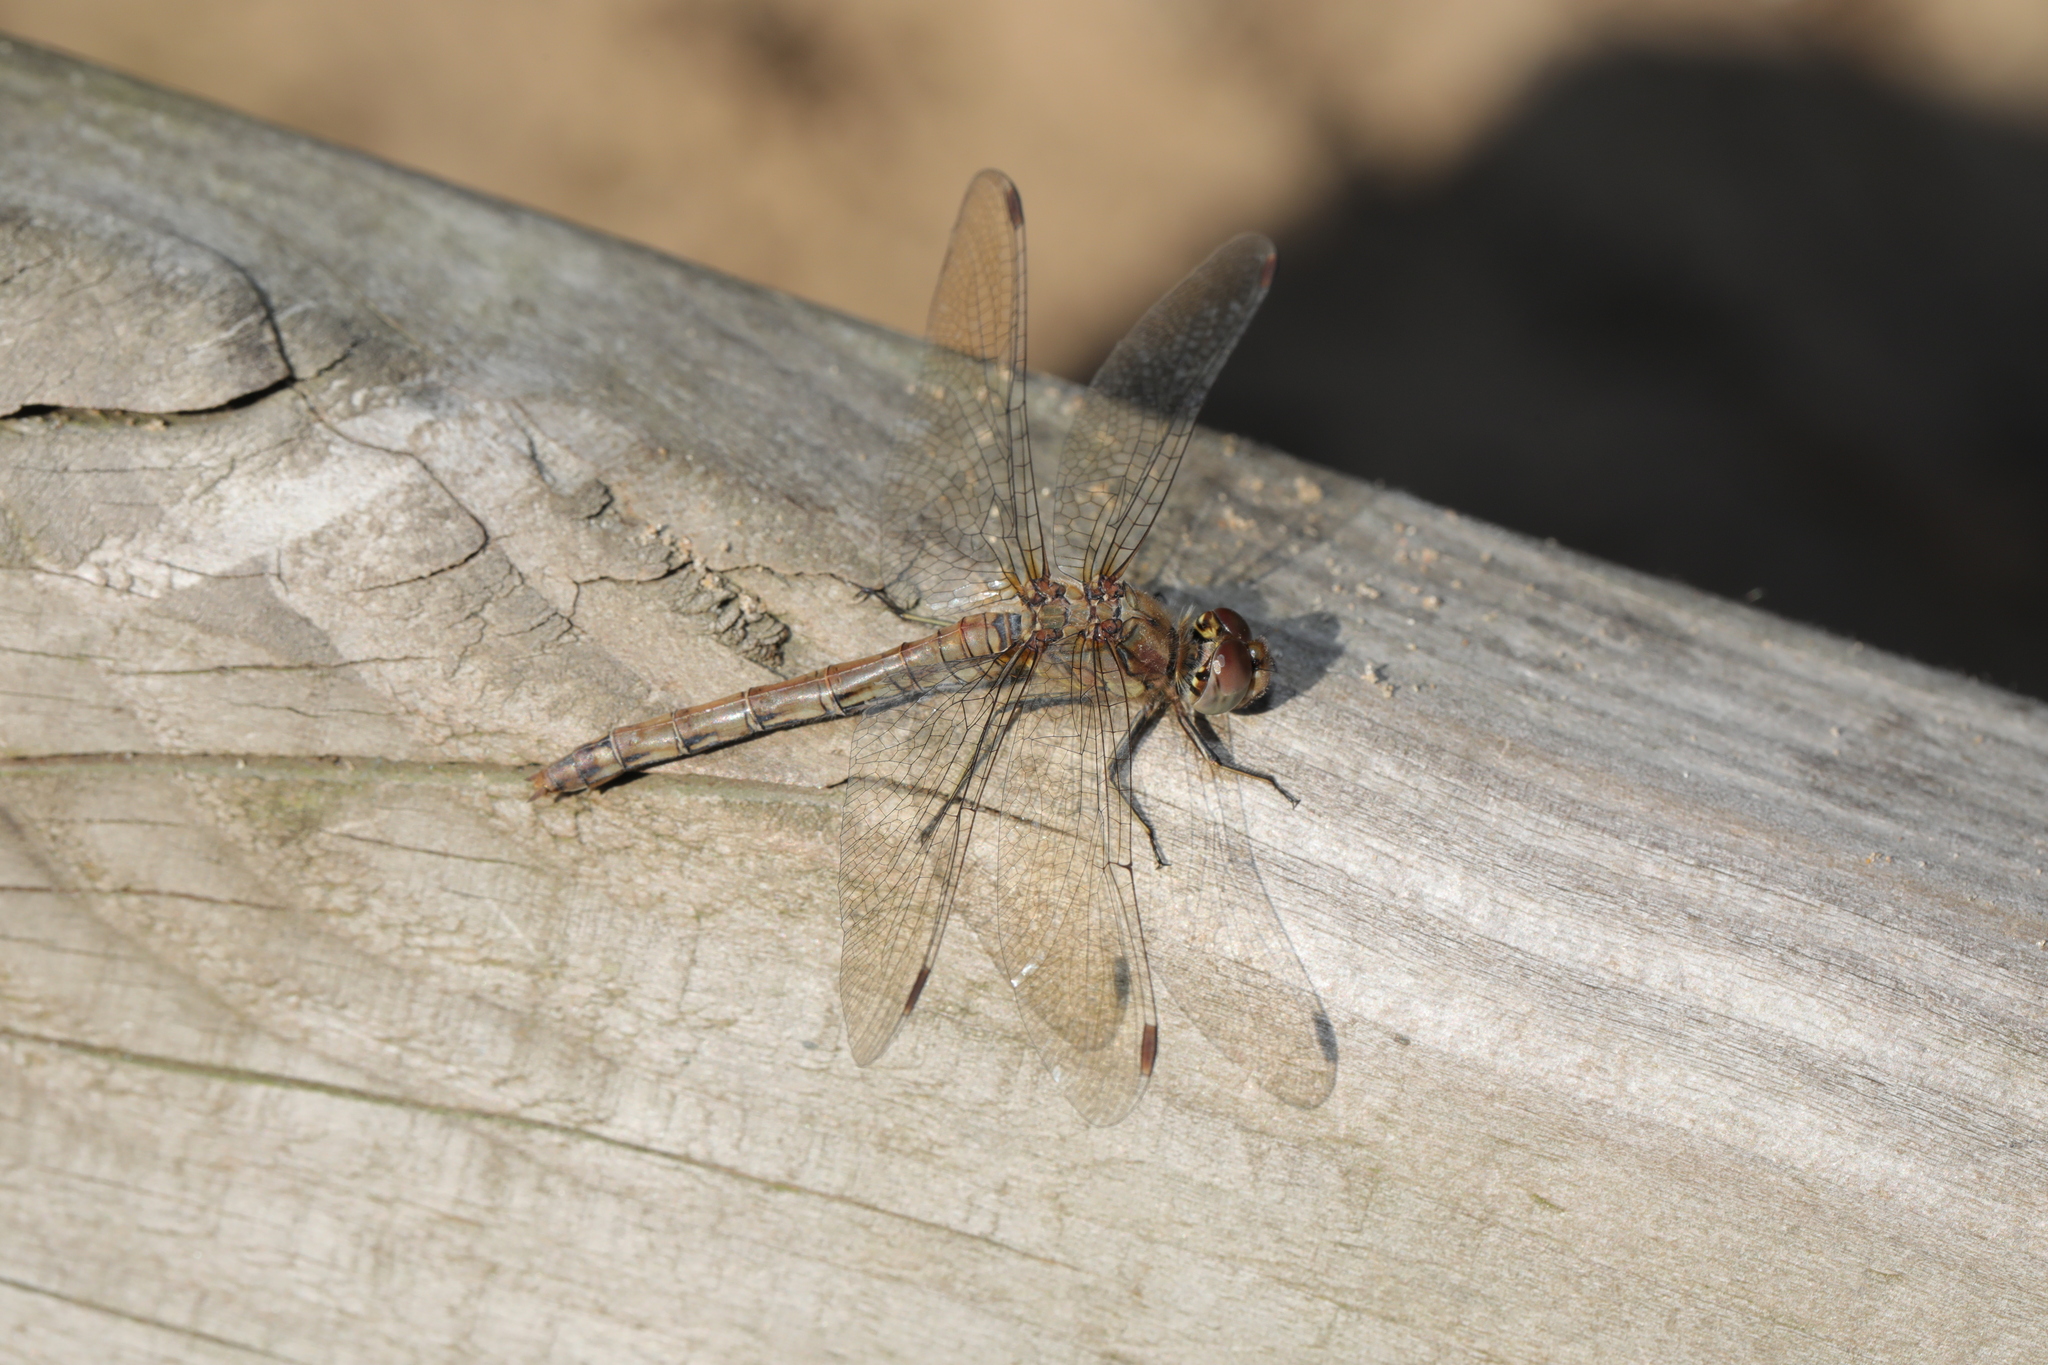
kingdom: Animalia
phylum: Arthropoda
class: Insecta
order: Odonata
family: Libellulidae
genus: Sympetrum
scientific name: Sympetrum striolatum
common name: Common darter
